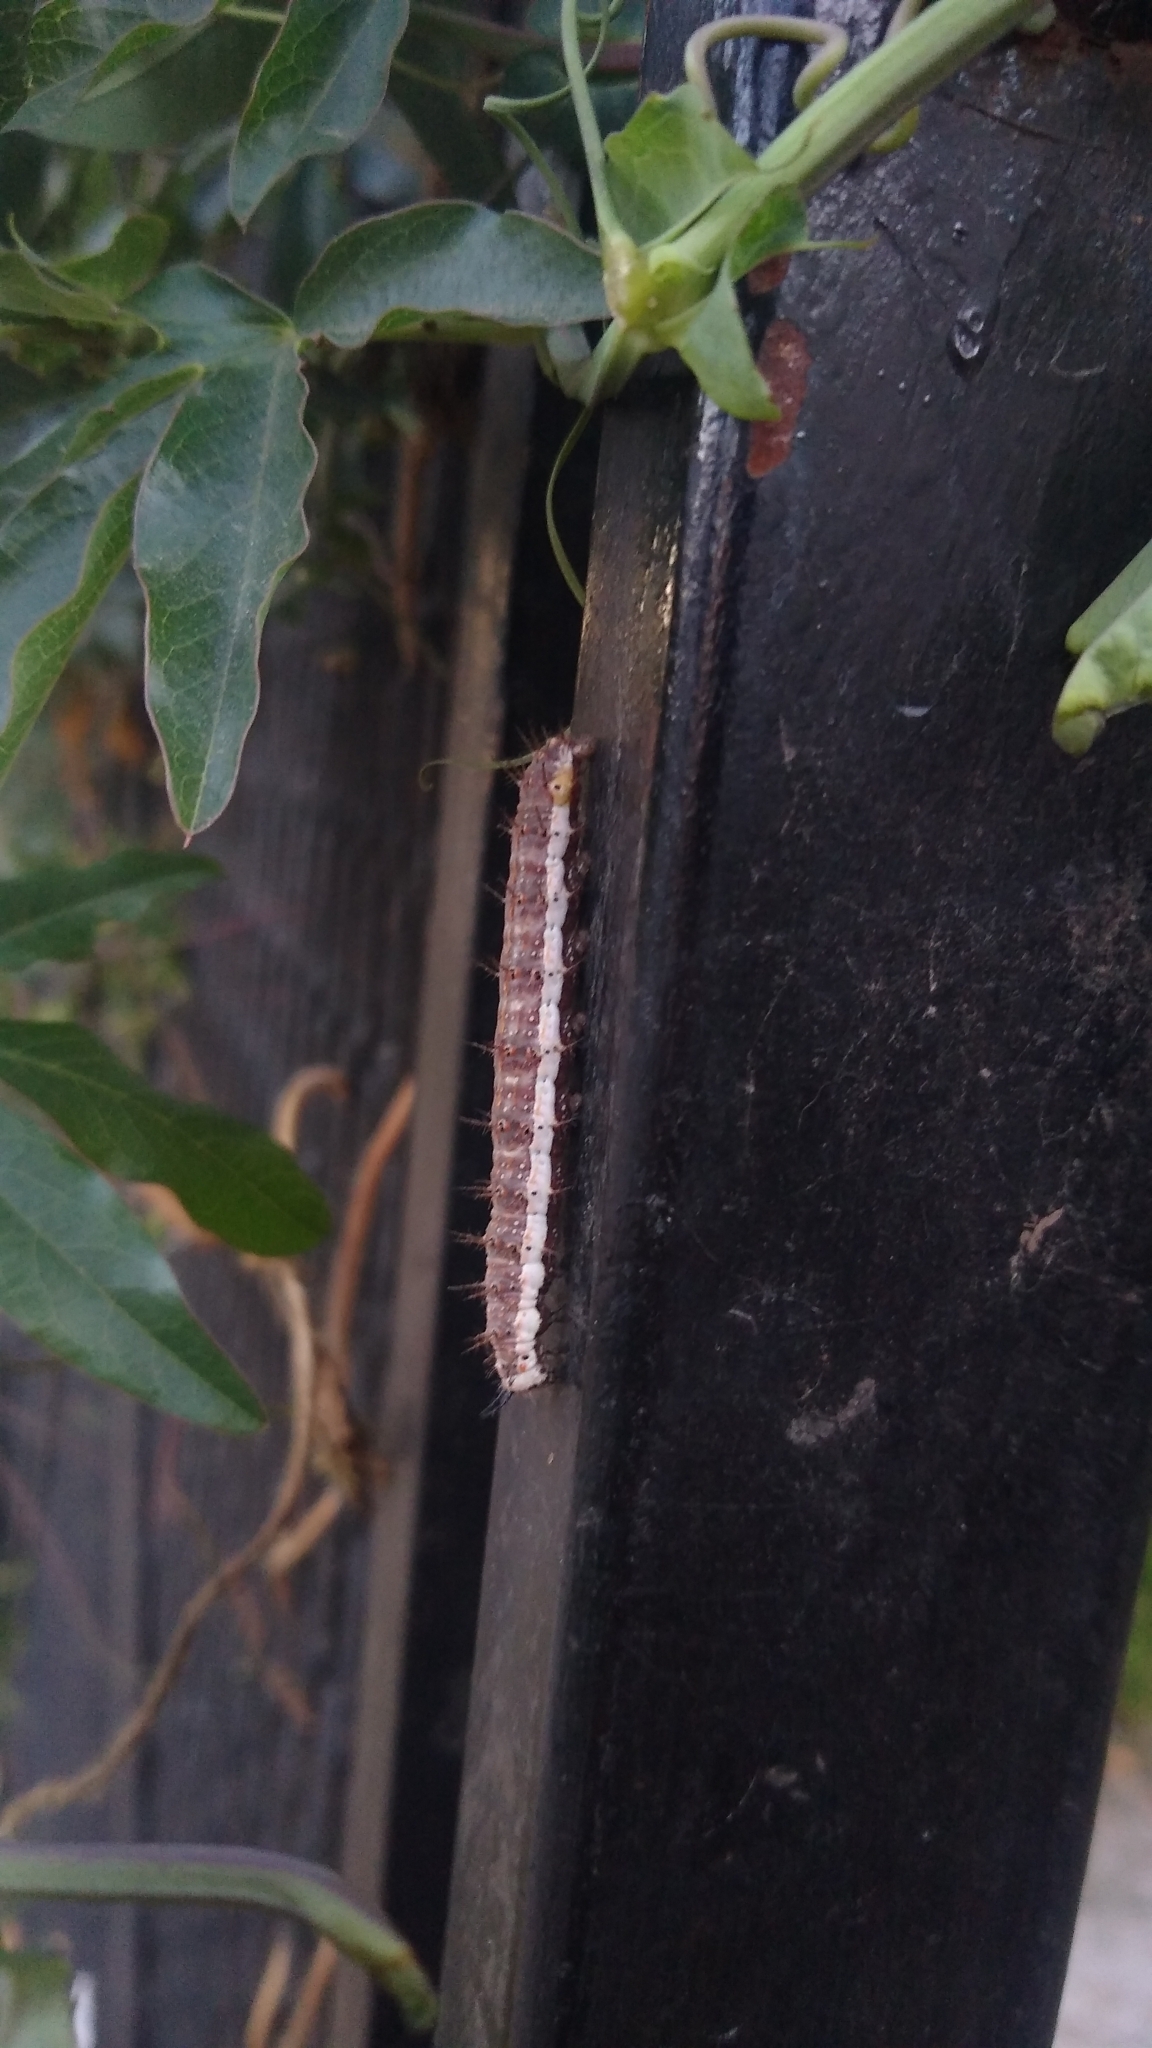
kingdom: Animalia
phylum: Arthropoda
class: Insecta
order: Lepidoptera
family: Nymphalidae
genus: Dione
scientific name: Dione vanillae
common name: Gulf fritillary
